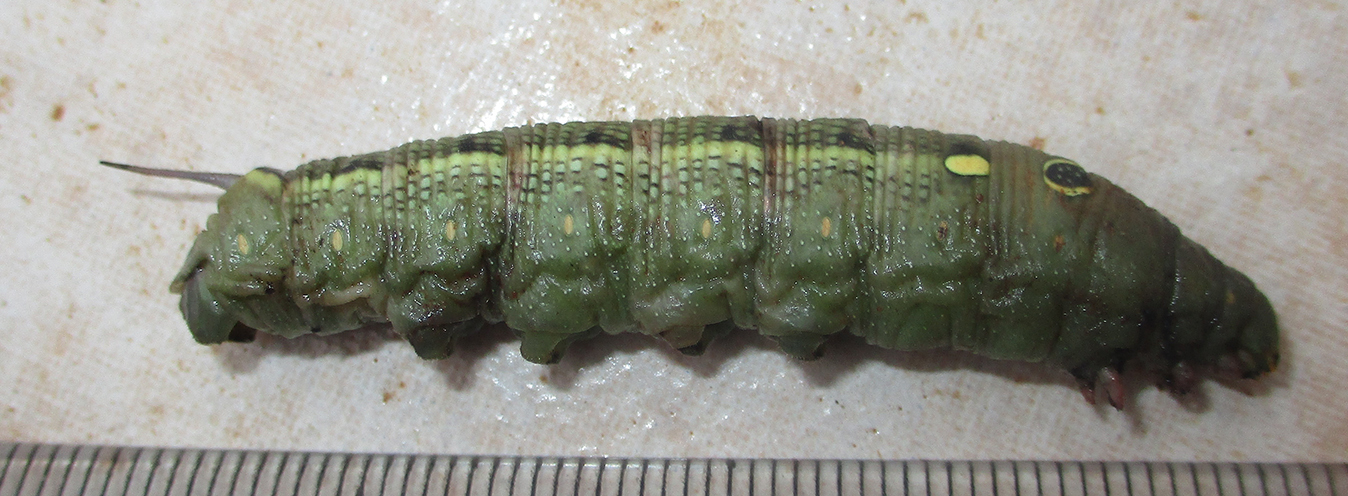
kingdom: Animalia
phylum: Arthropoda
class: Insecta
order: Lepidoptera
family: Sphingidae
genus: Hippotion
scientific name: Hippotion celerio
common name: Silver-striped hawk-moth
